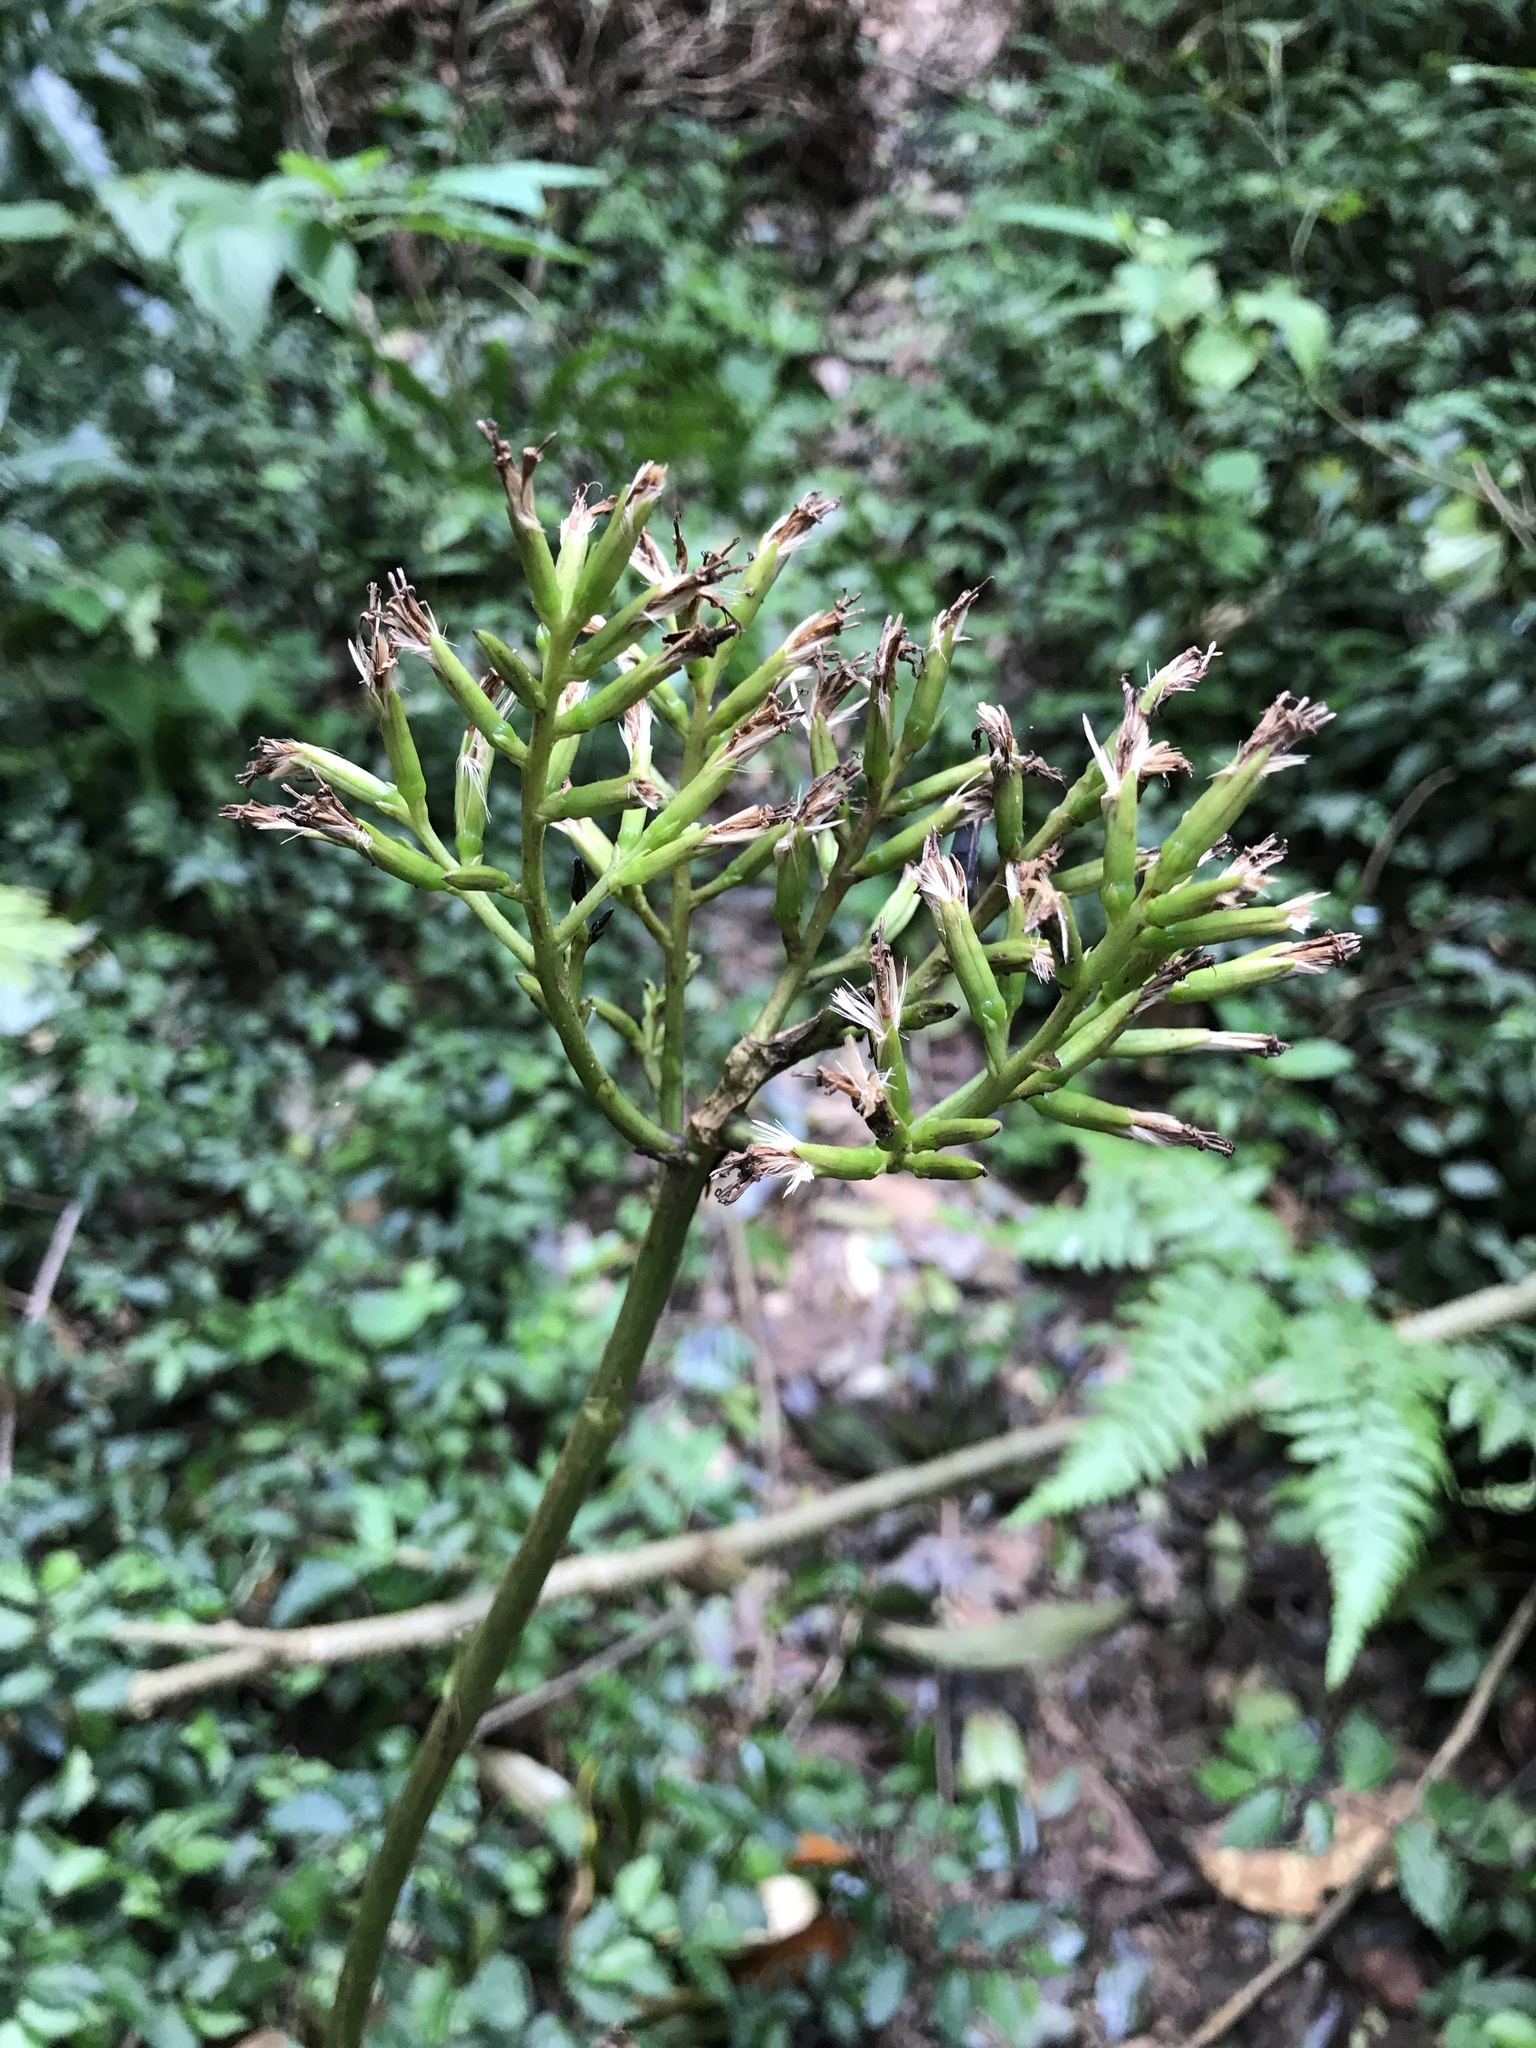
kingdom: Plantae
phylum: Tracheophyta
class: Magnoliopsida
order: Asterales
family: Asteraceae
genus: Taimingasa
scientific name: Taimingasa yatabei
